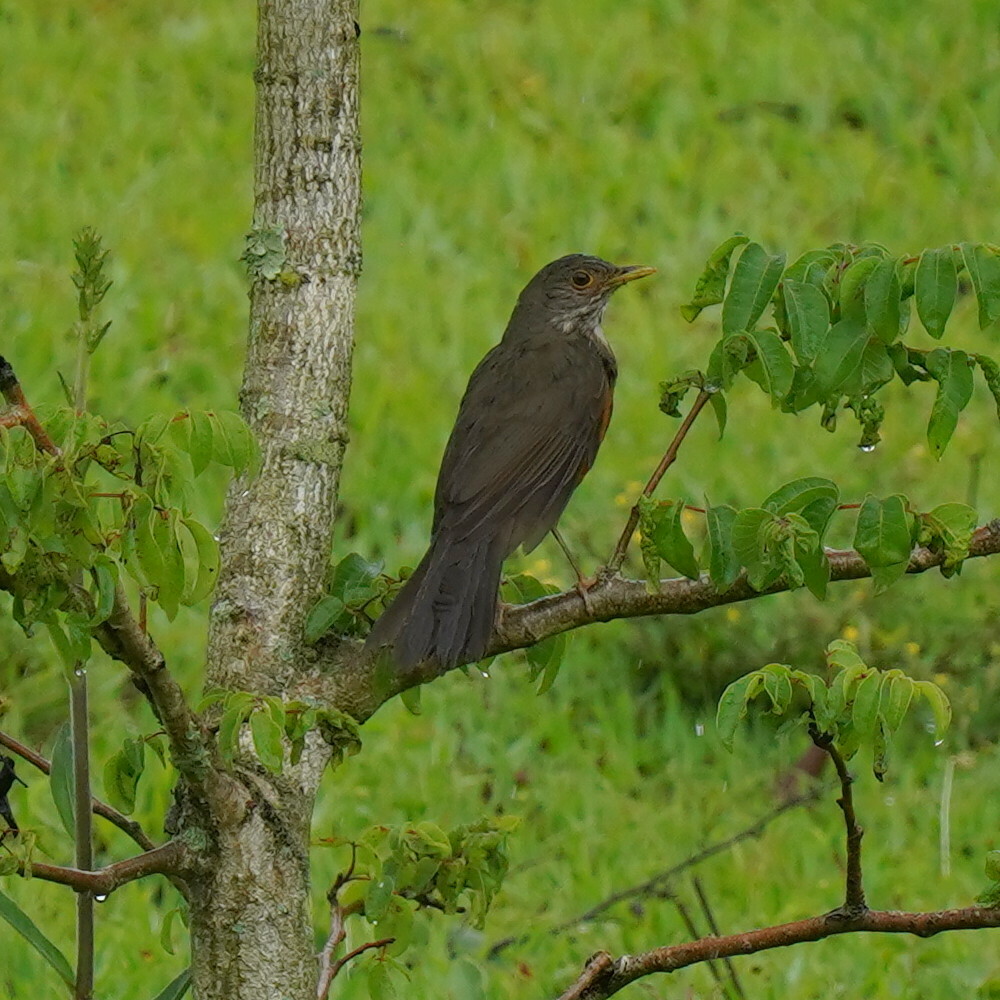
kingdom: Animalia
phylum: Chordata
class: Aves
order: Passeriformes
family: Turdidae
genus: Turdus
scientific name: Turdus rufiventris
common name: Rufous-bellied thrush
